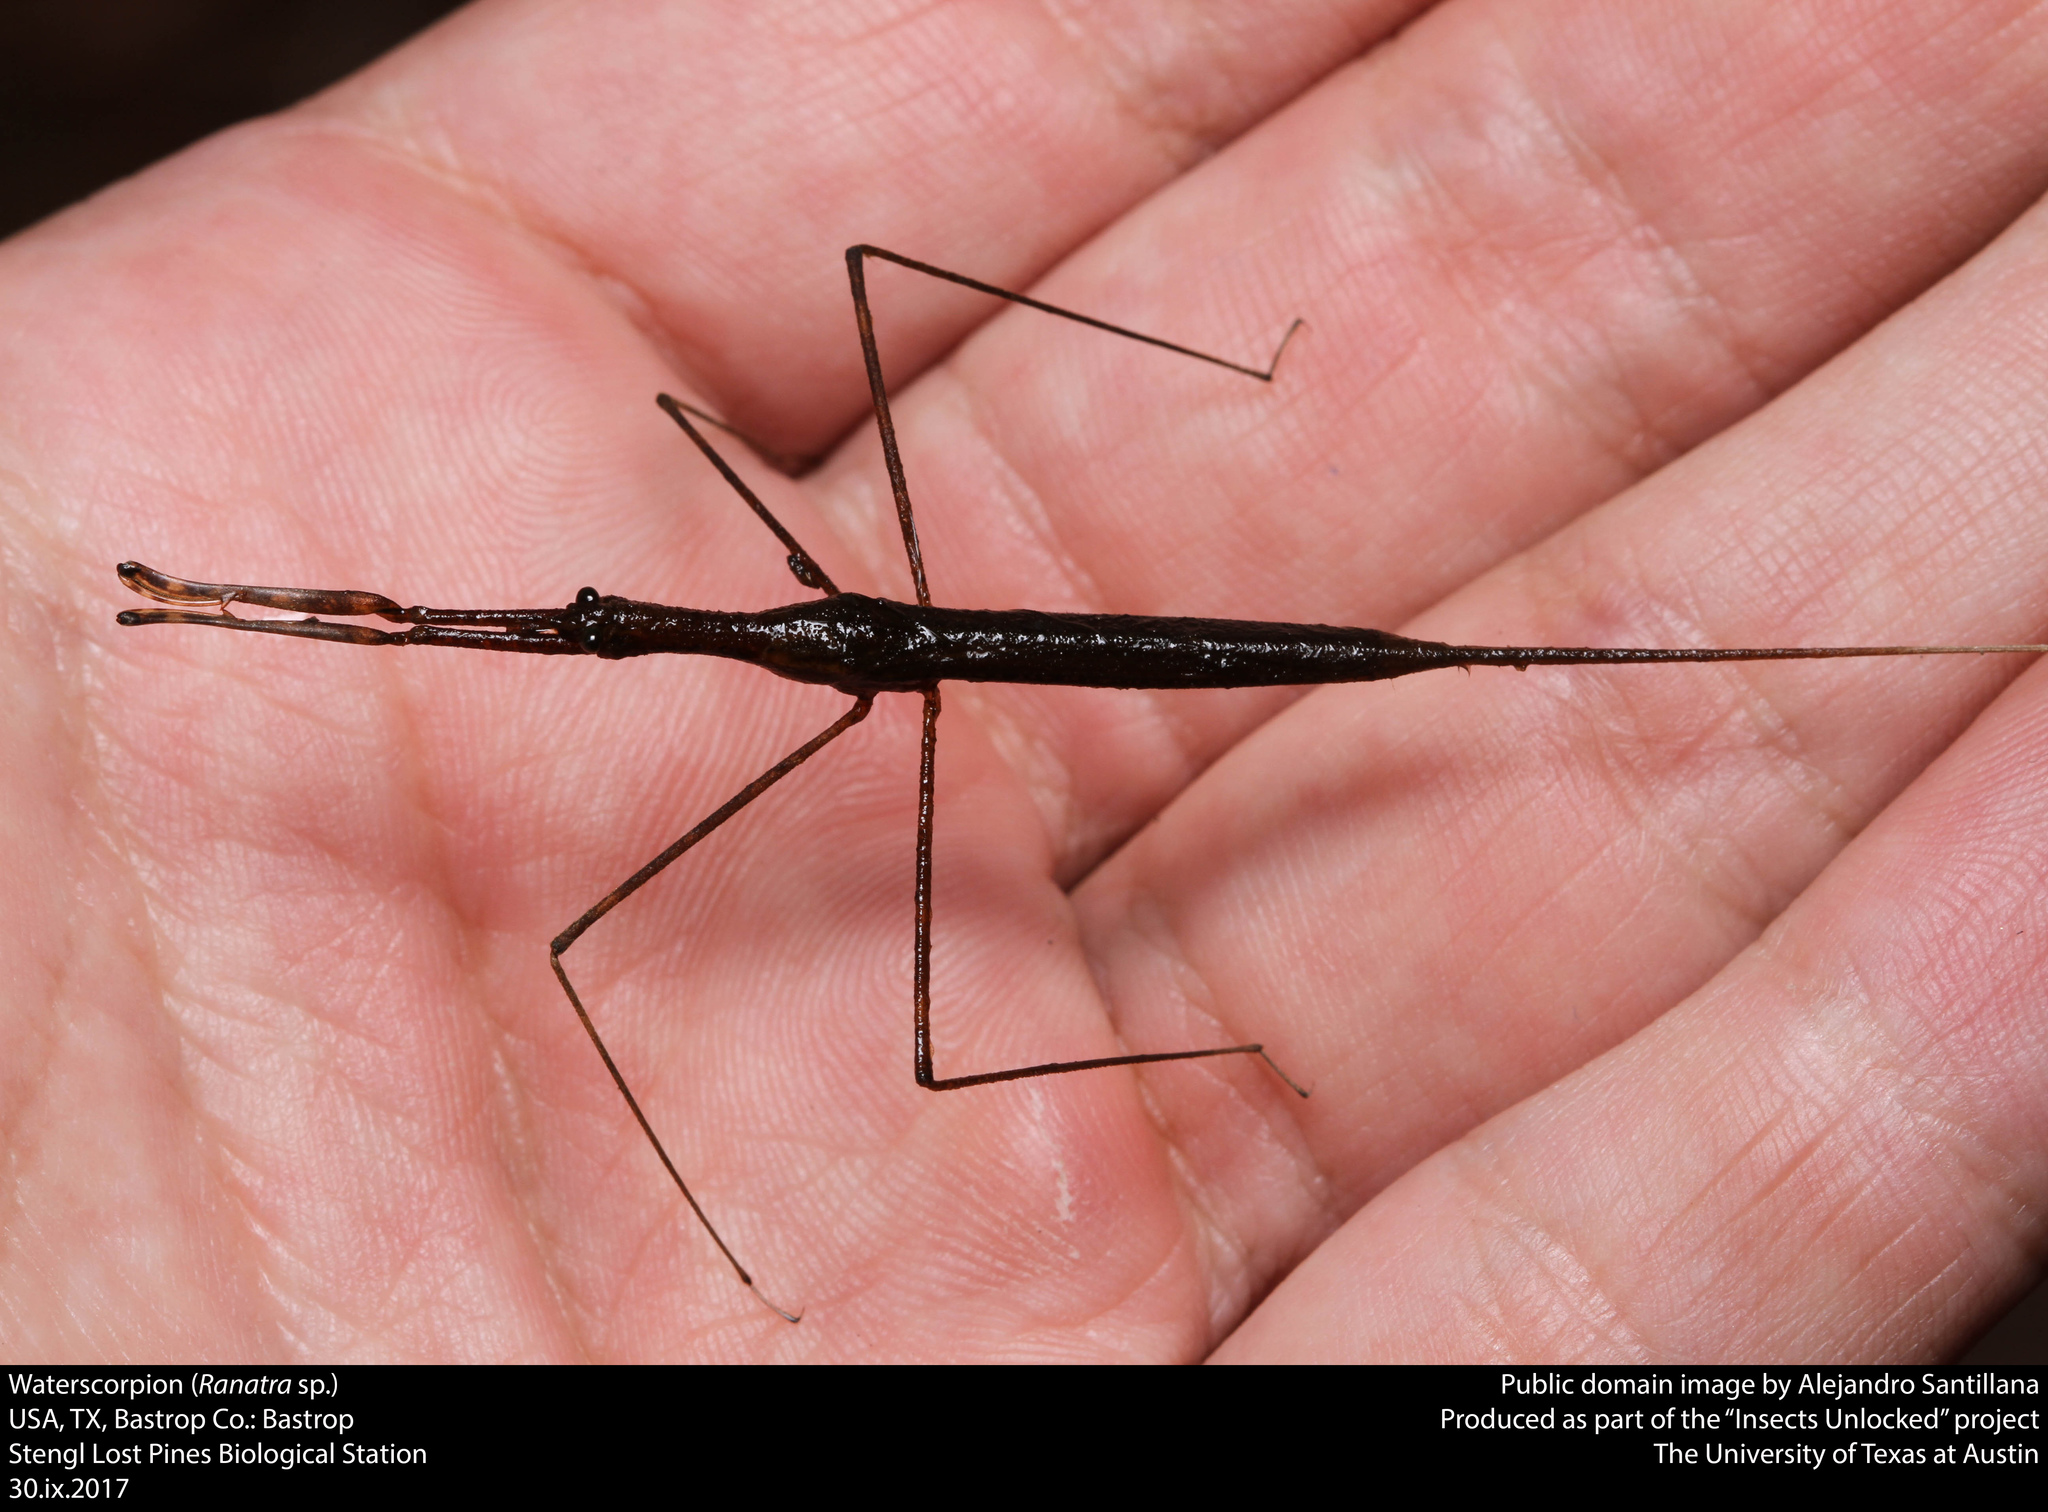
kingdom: Animalia
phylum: Arthropoda
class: Insecta
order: Hemiptera
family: Nepidae
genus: Ranatra
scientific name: Ranatra
